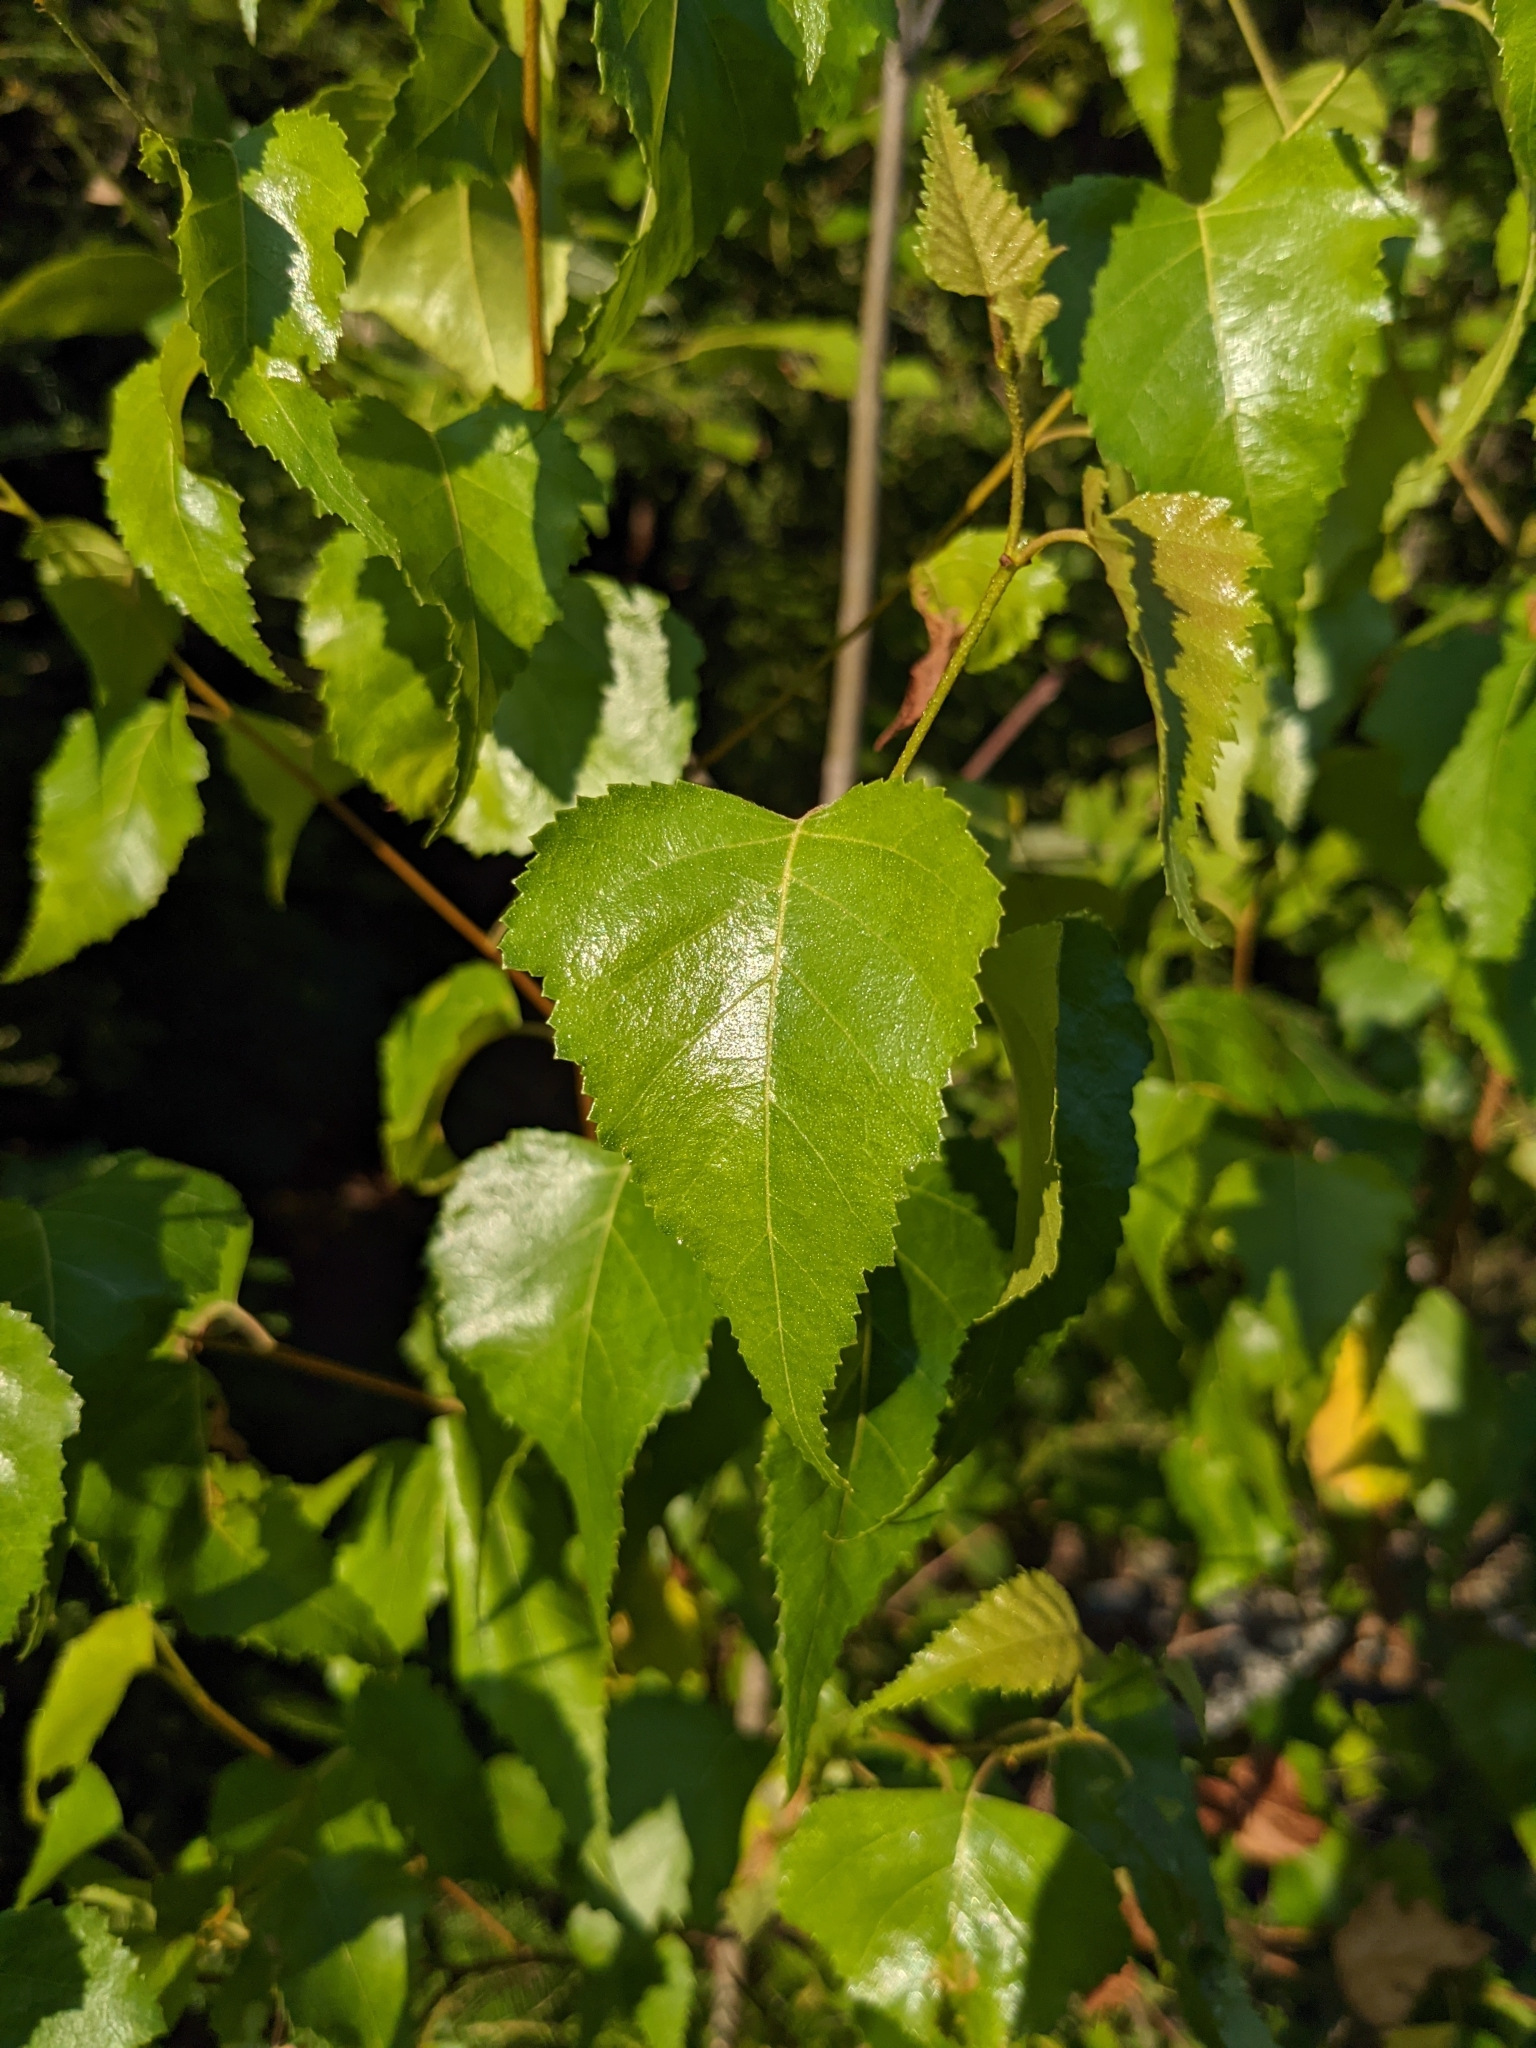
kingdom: Plantae
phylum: Tracheophyta
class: Magnoliopsida
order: Fagales
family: Betulaceae
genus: Betula
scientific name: Betula populifolia
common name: Fire birch
